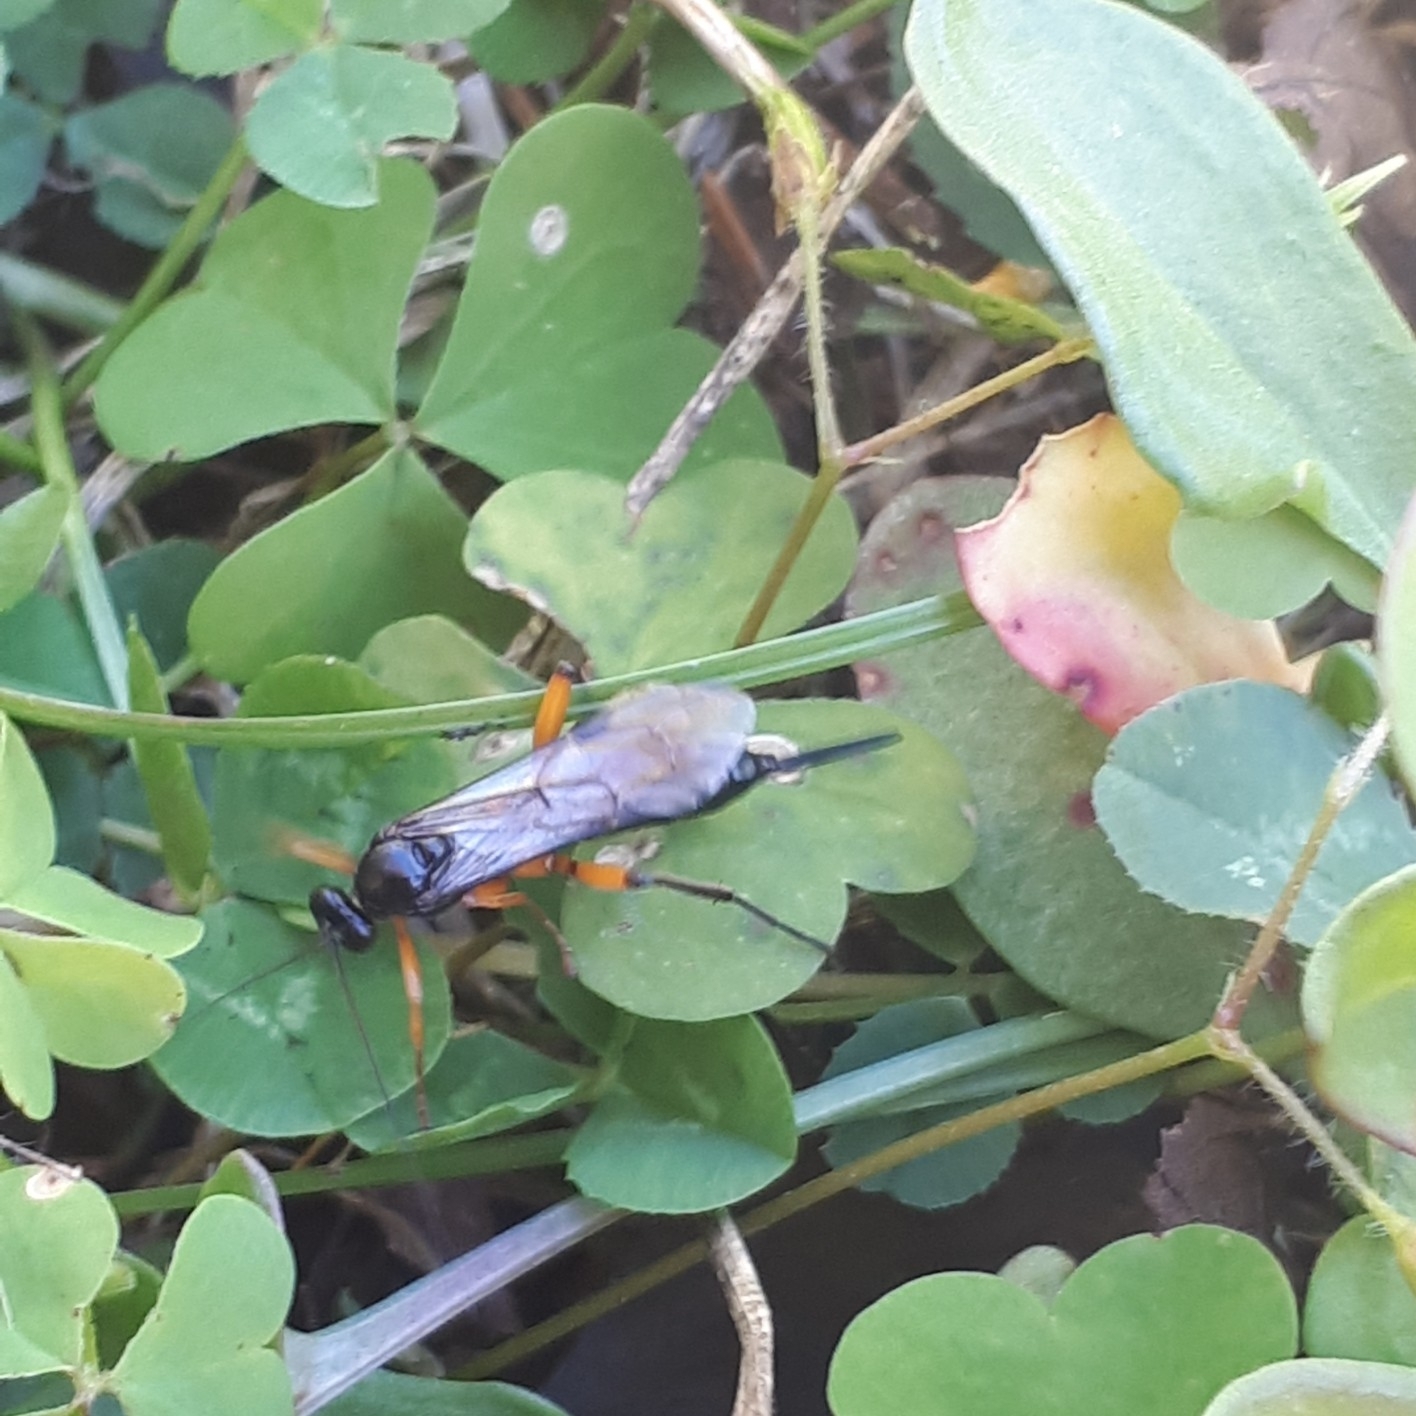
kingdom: Animalia
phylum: Arthropoda
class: Insecta
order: Hymenoptera
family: Ichneumonidae
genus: Pimpla
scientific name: Pimpla pedalis
